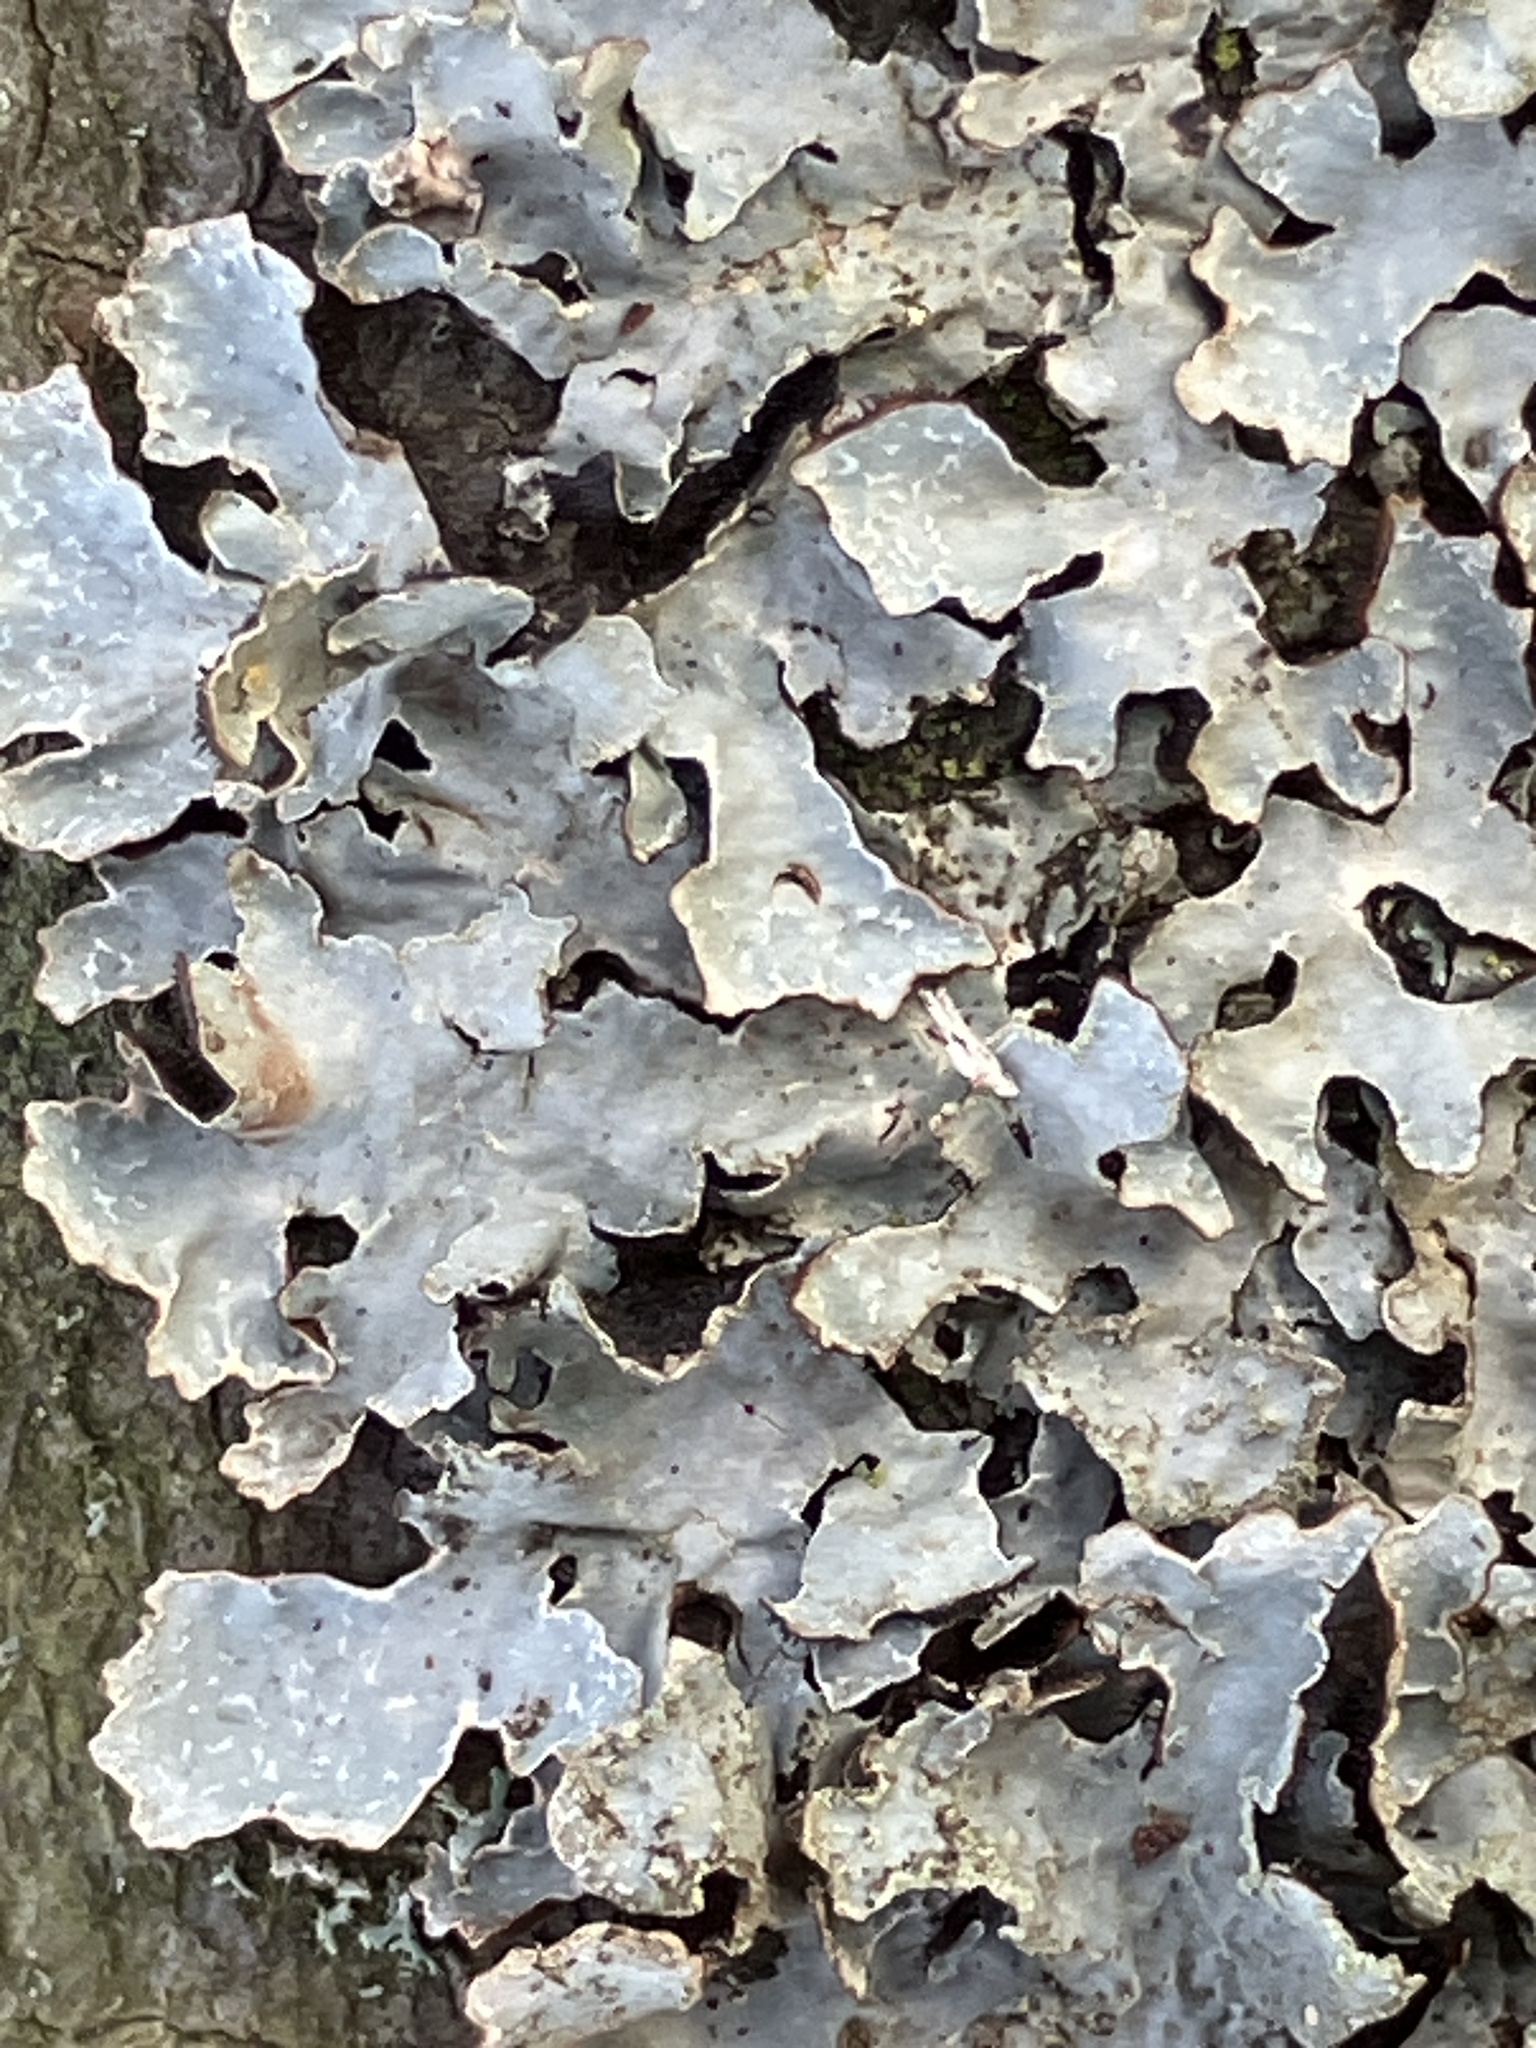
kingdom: Fungi
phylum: Ascomycota
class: Lecanoromycetes
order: Lecanorales
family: Parmeliaceae
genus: Parmelia
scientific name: Parmelia sulcata
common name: Netted shield lichen
